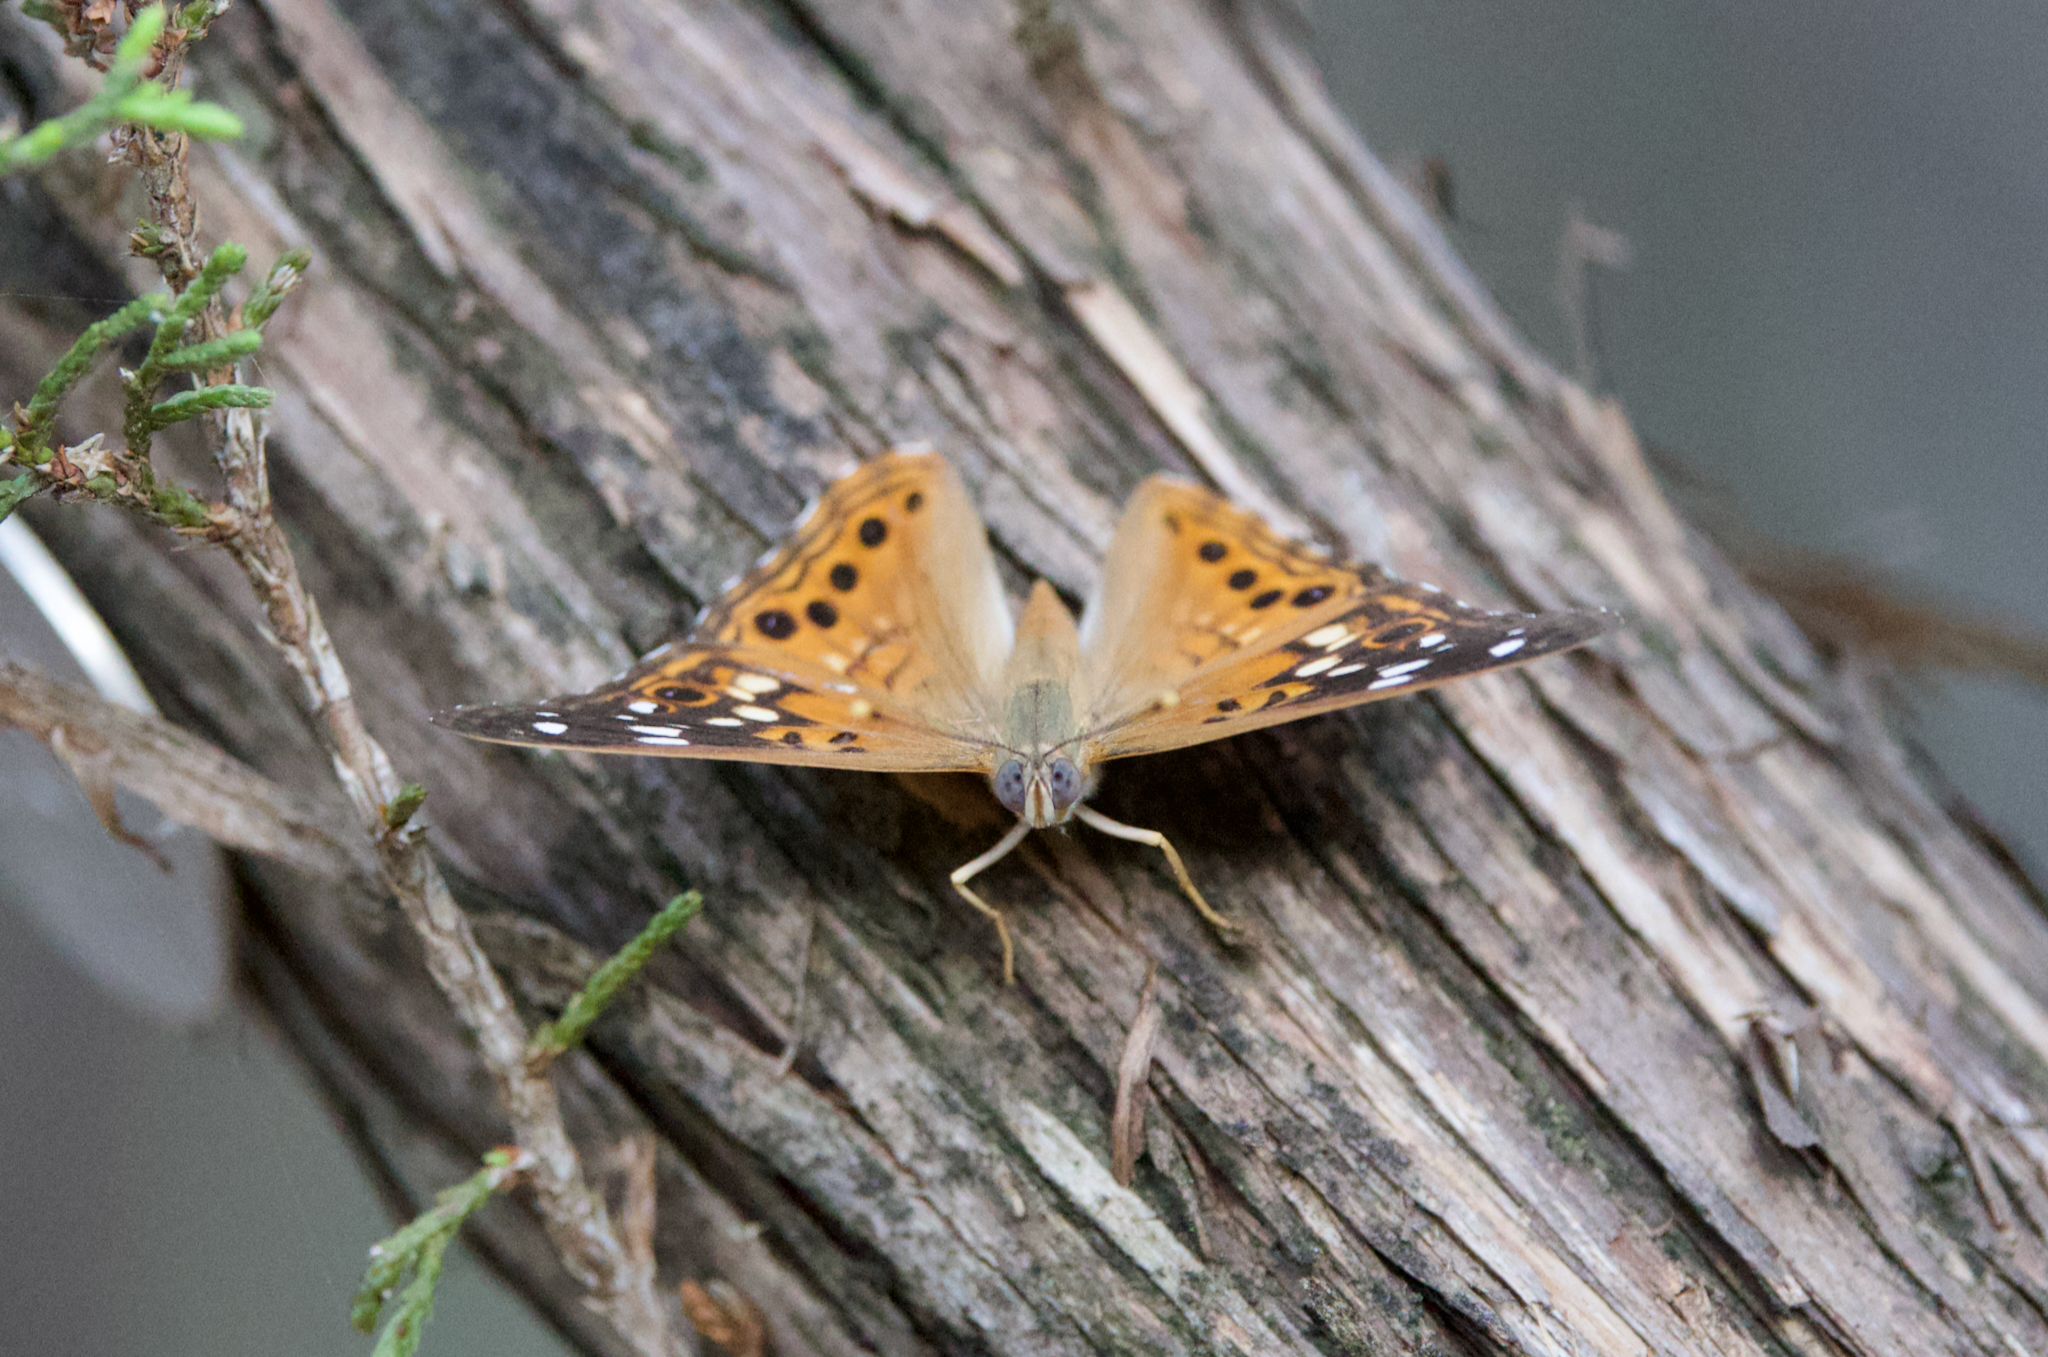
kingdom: Animalia
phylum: Arthropoda
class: Insecta
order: Lepidoptera
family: Nymphalidae
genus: Asterocampa
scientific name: Asterocampa celtis
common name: Hackberry emperor
